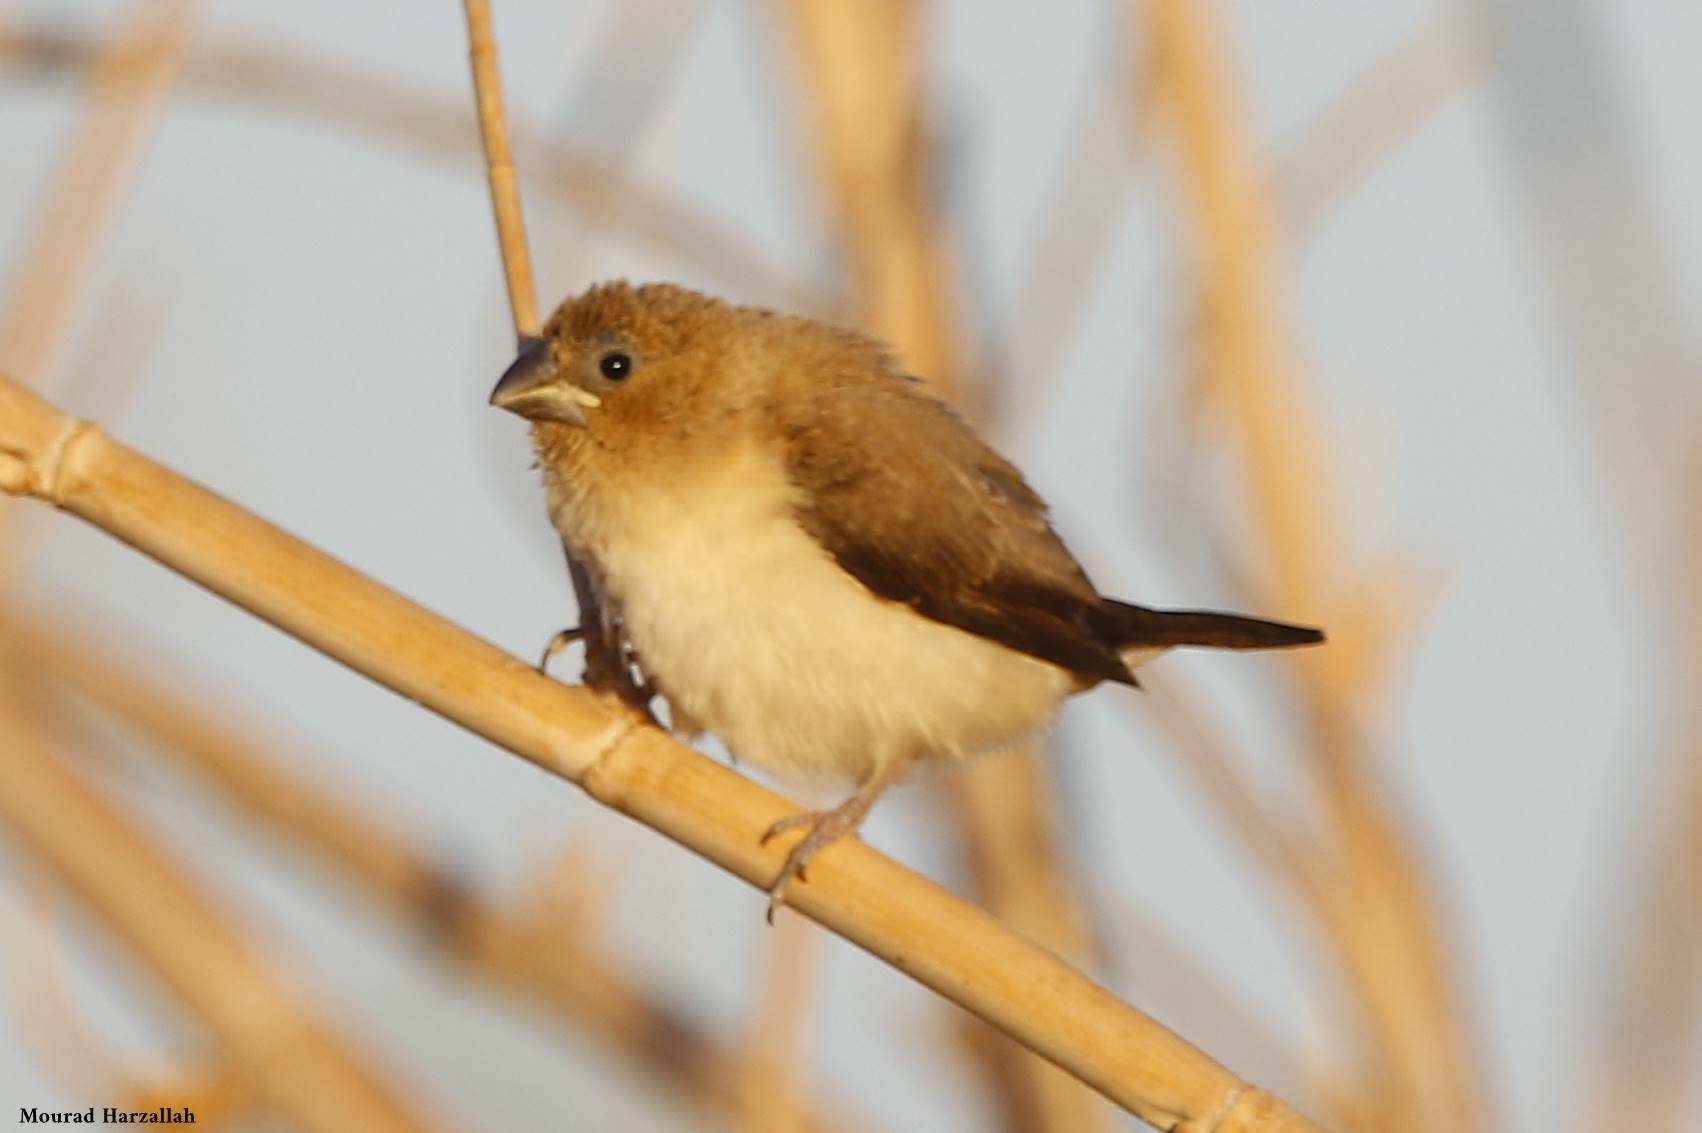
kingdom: Animalia
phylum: Chordata
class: Aves
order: Passeriformes
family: Estrildidae
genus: Euodice
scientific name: Euodice cantans
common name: African silverbill
